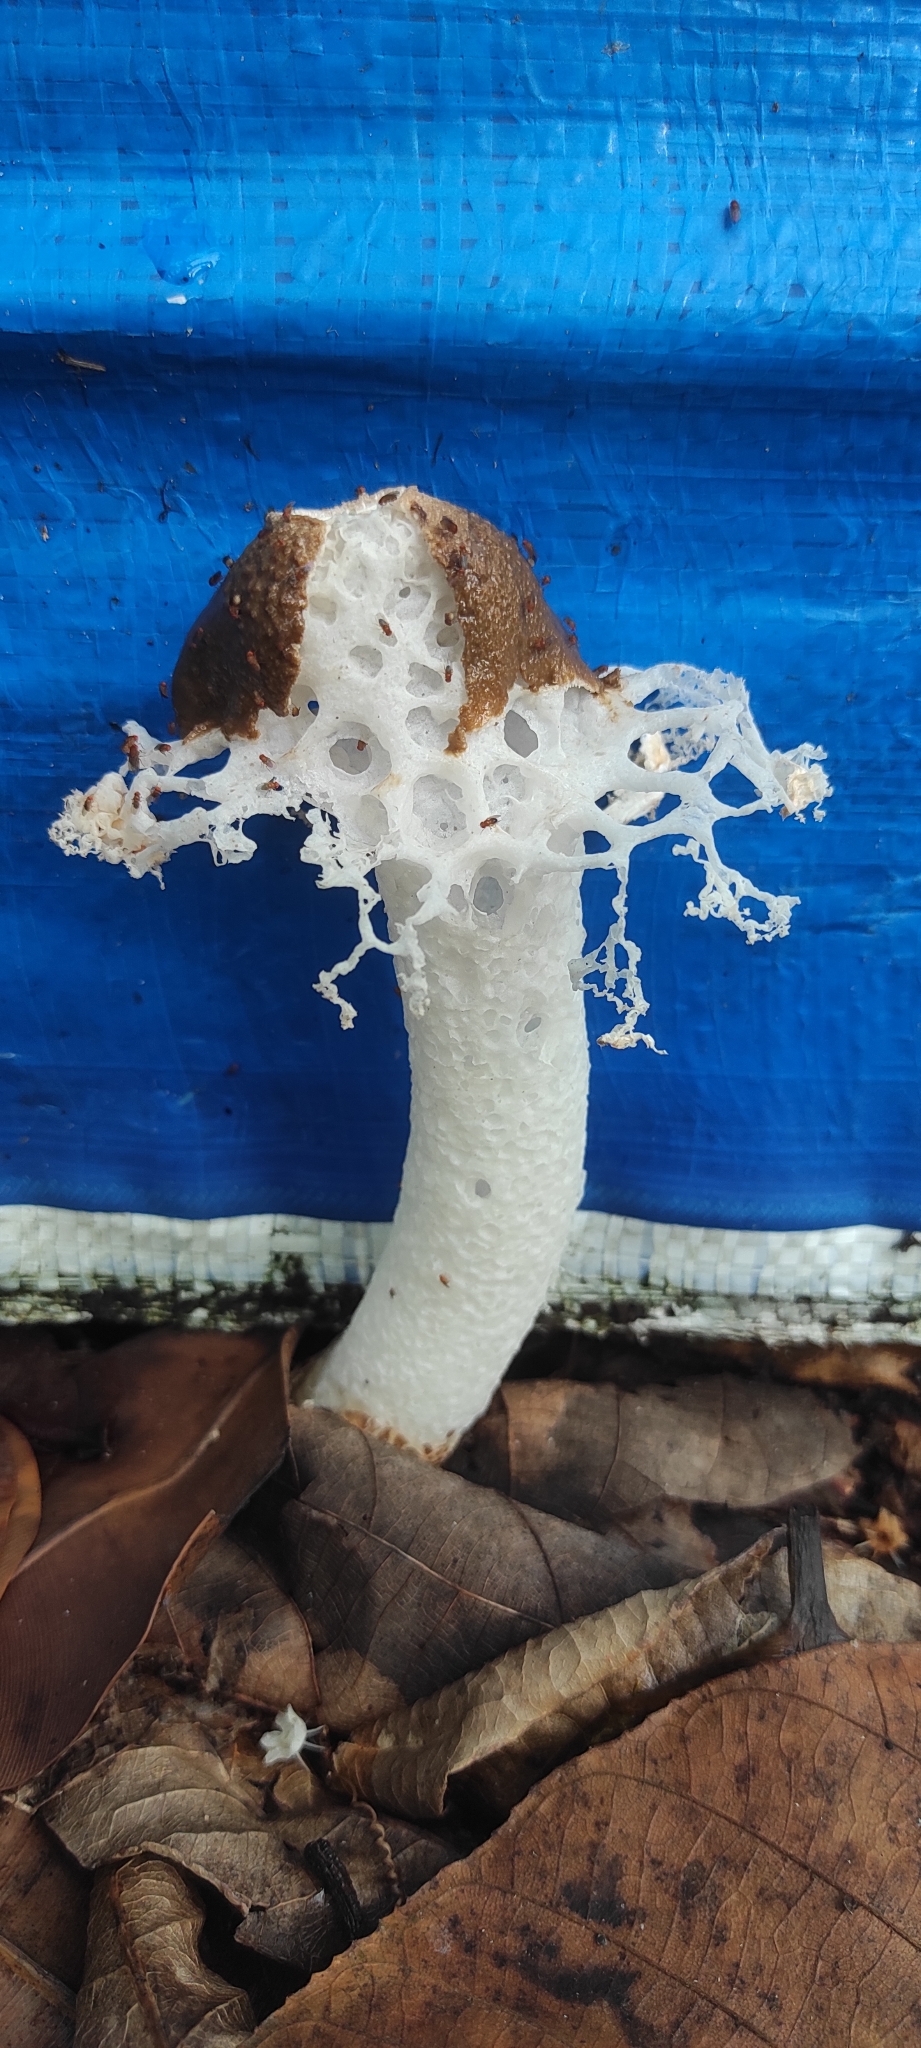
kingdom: Fungi
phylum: Basidiomycota
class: Agaricomycetes
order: Phallales
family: Phallaceae
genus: Phallus
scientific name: Phallus merulinus
